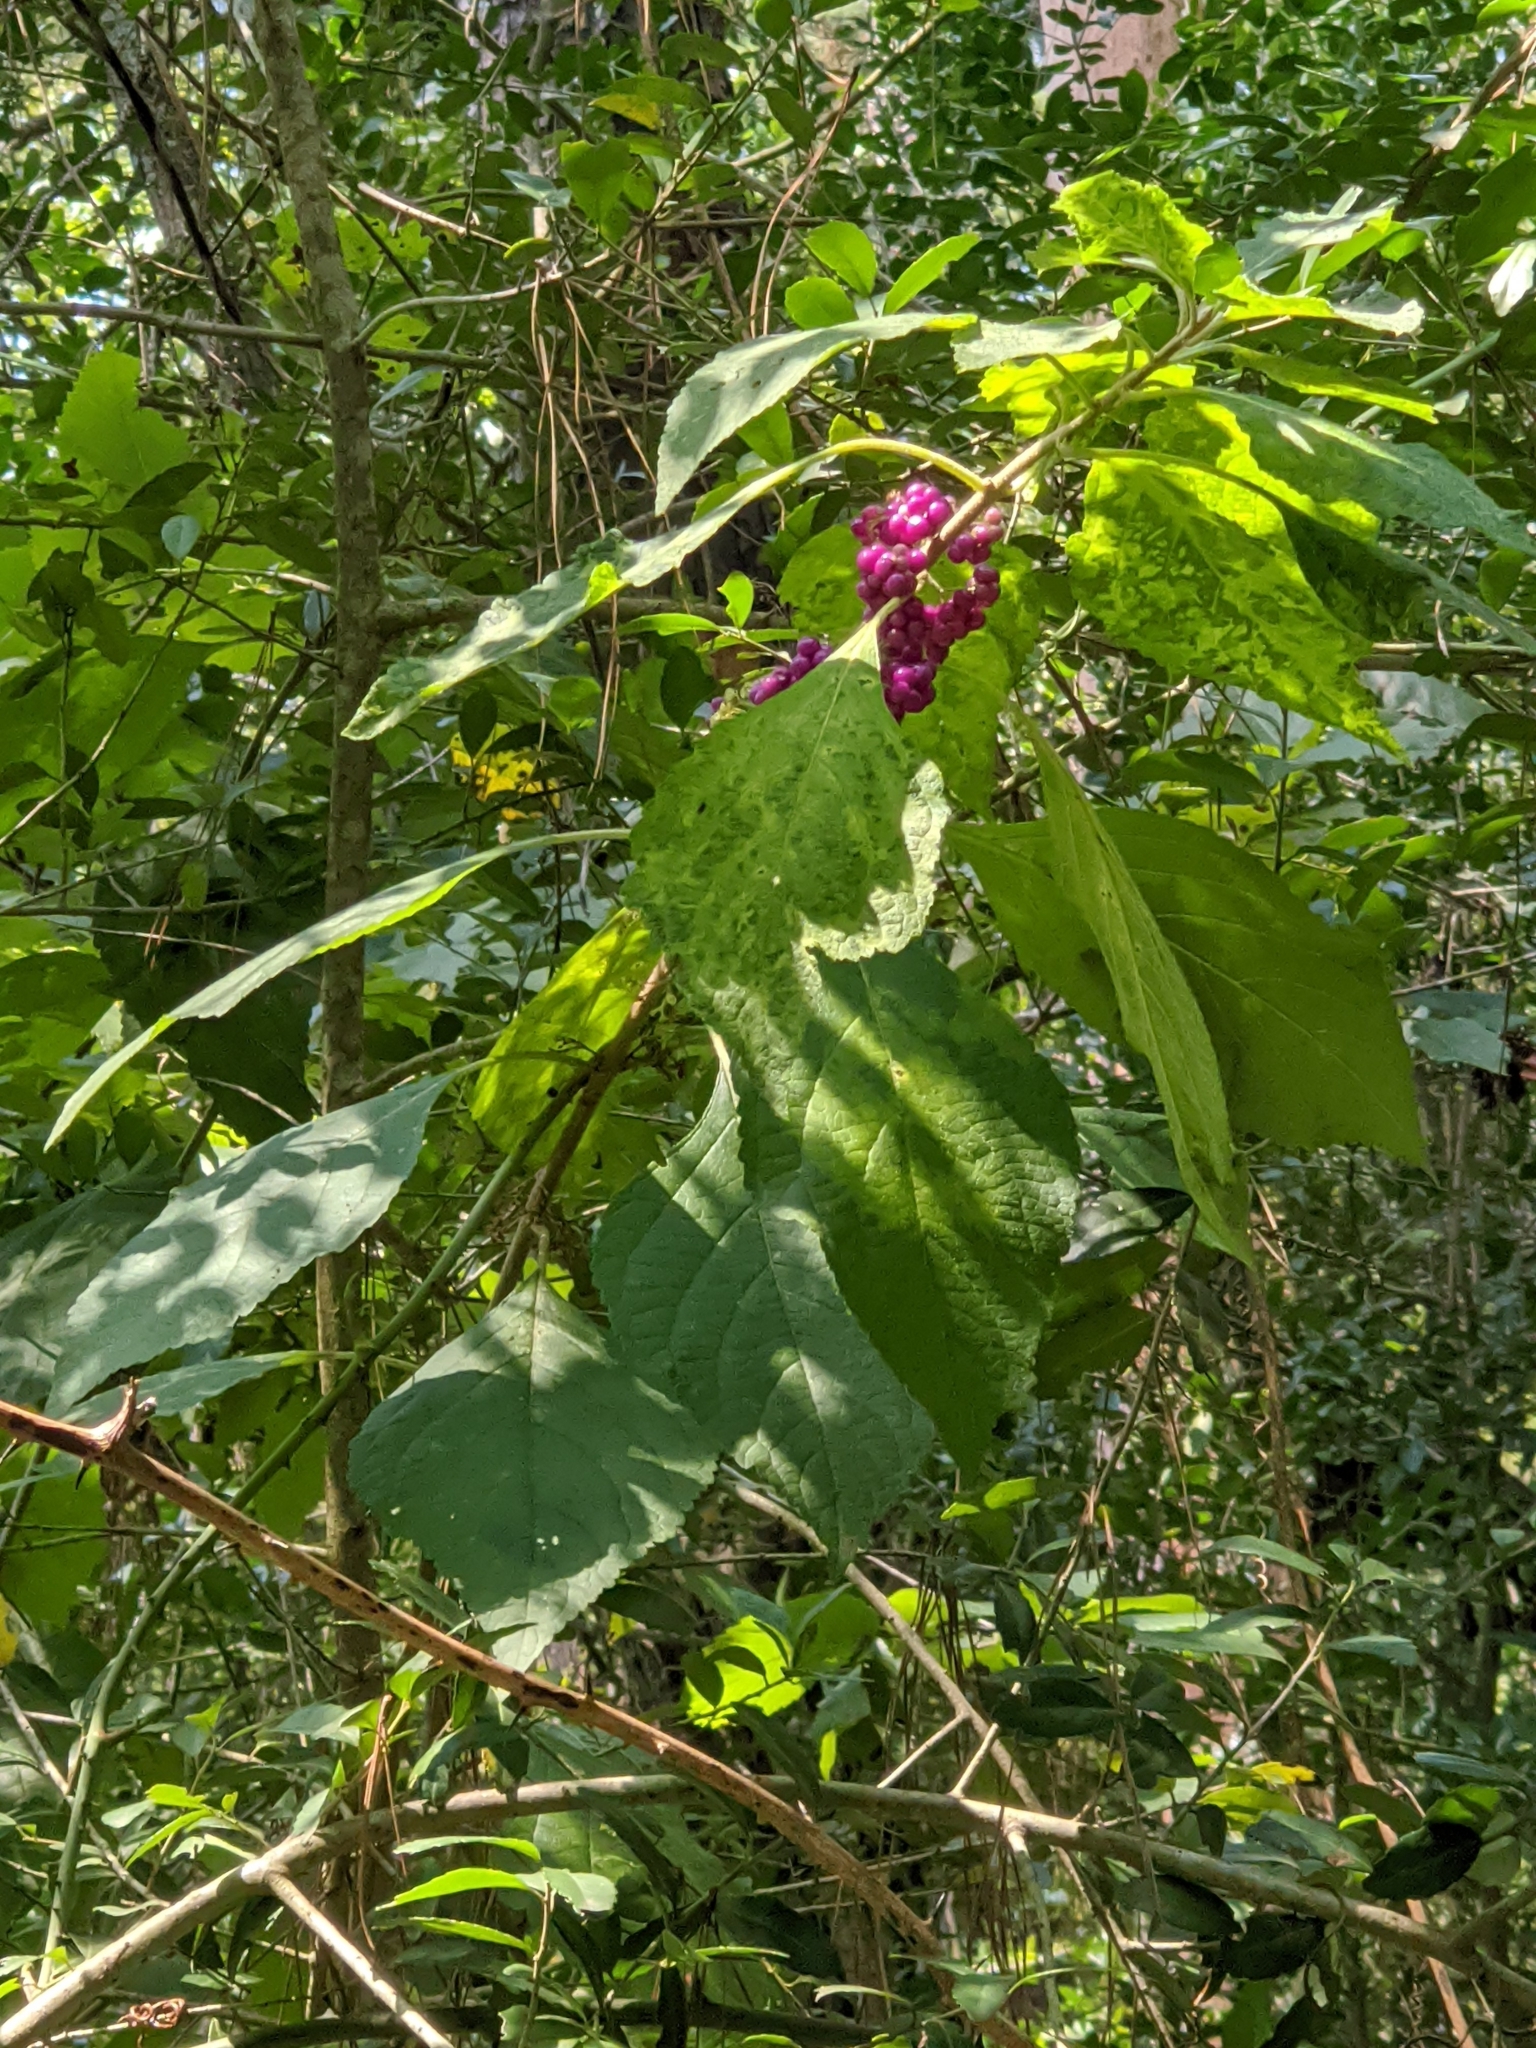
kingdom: Plantae
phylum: Tracheophyta
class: Magnoliopsida
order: Lamiales
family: Lamiaceae
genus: Callicarpa
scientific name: Callicarpa americana
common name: American beautyberry
